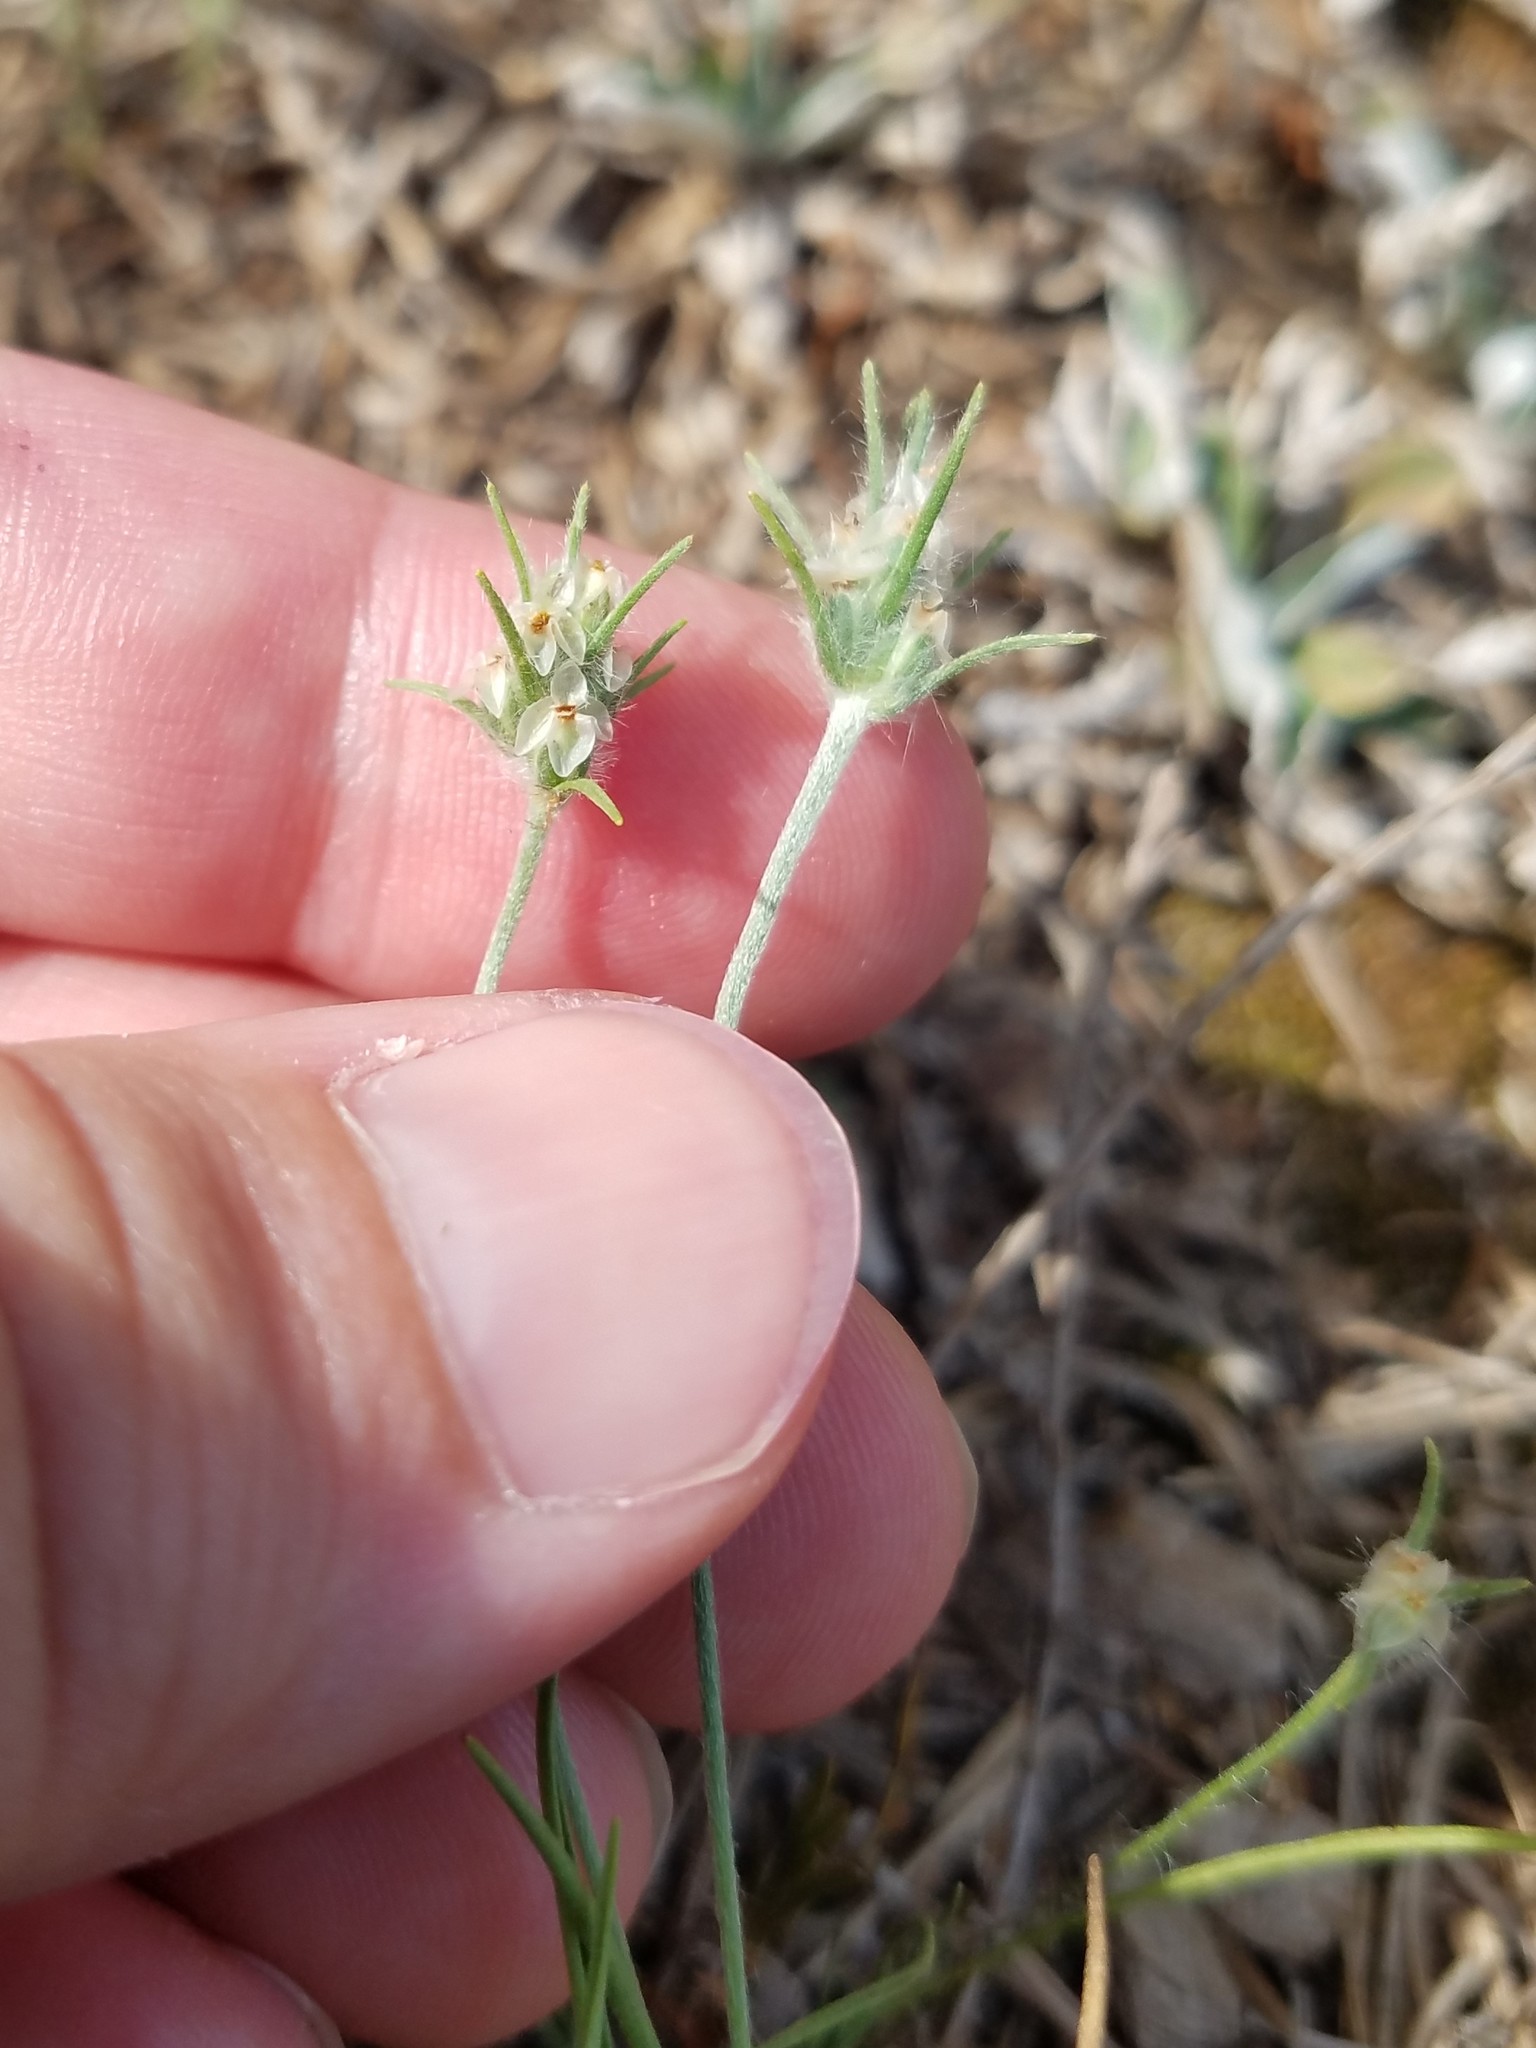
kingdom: Plantae
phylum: Tracheophyta
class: Magnoliopsida
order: Lamiales
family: Plantaginaceae
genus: Plantago
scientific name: Plantago aristata
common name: Bracted plantain
